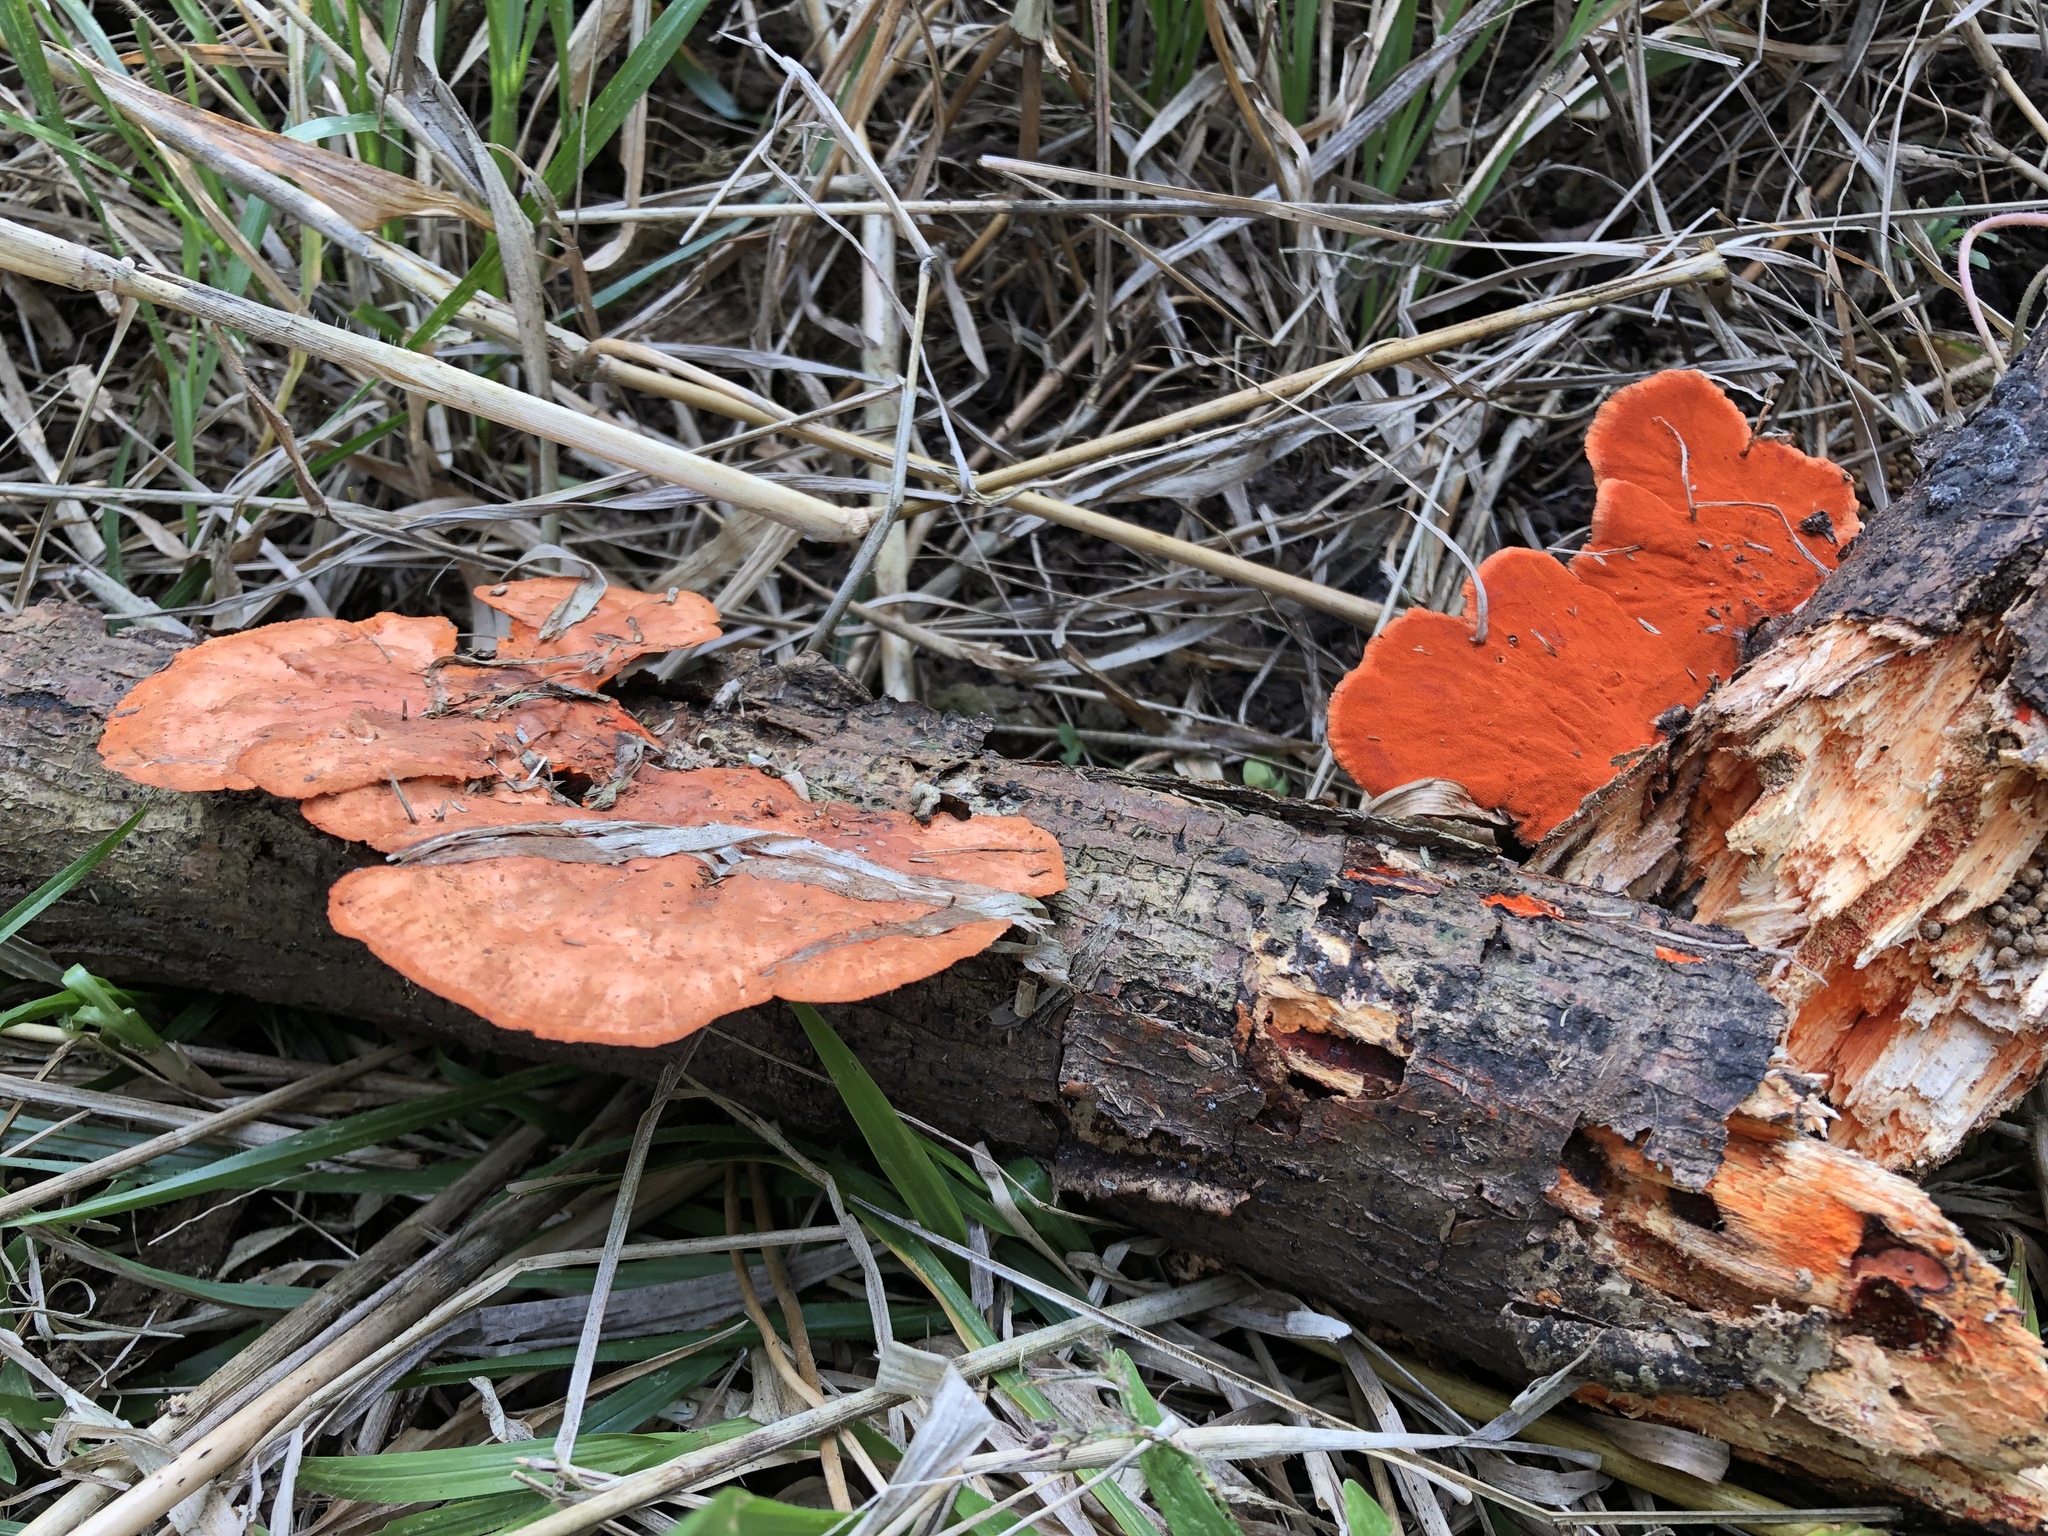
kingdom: Fungi
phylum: Basidiomycota
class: Agaricomycetes
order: Polyporales
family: Polyporaceae
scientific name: Polyporaceae
